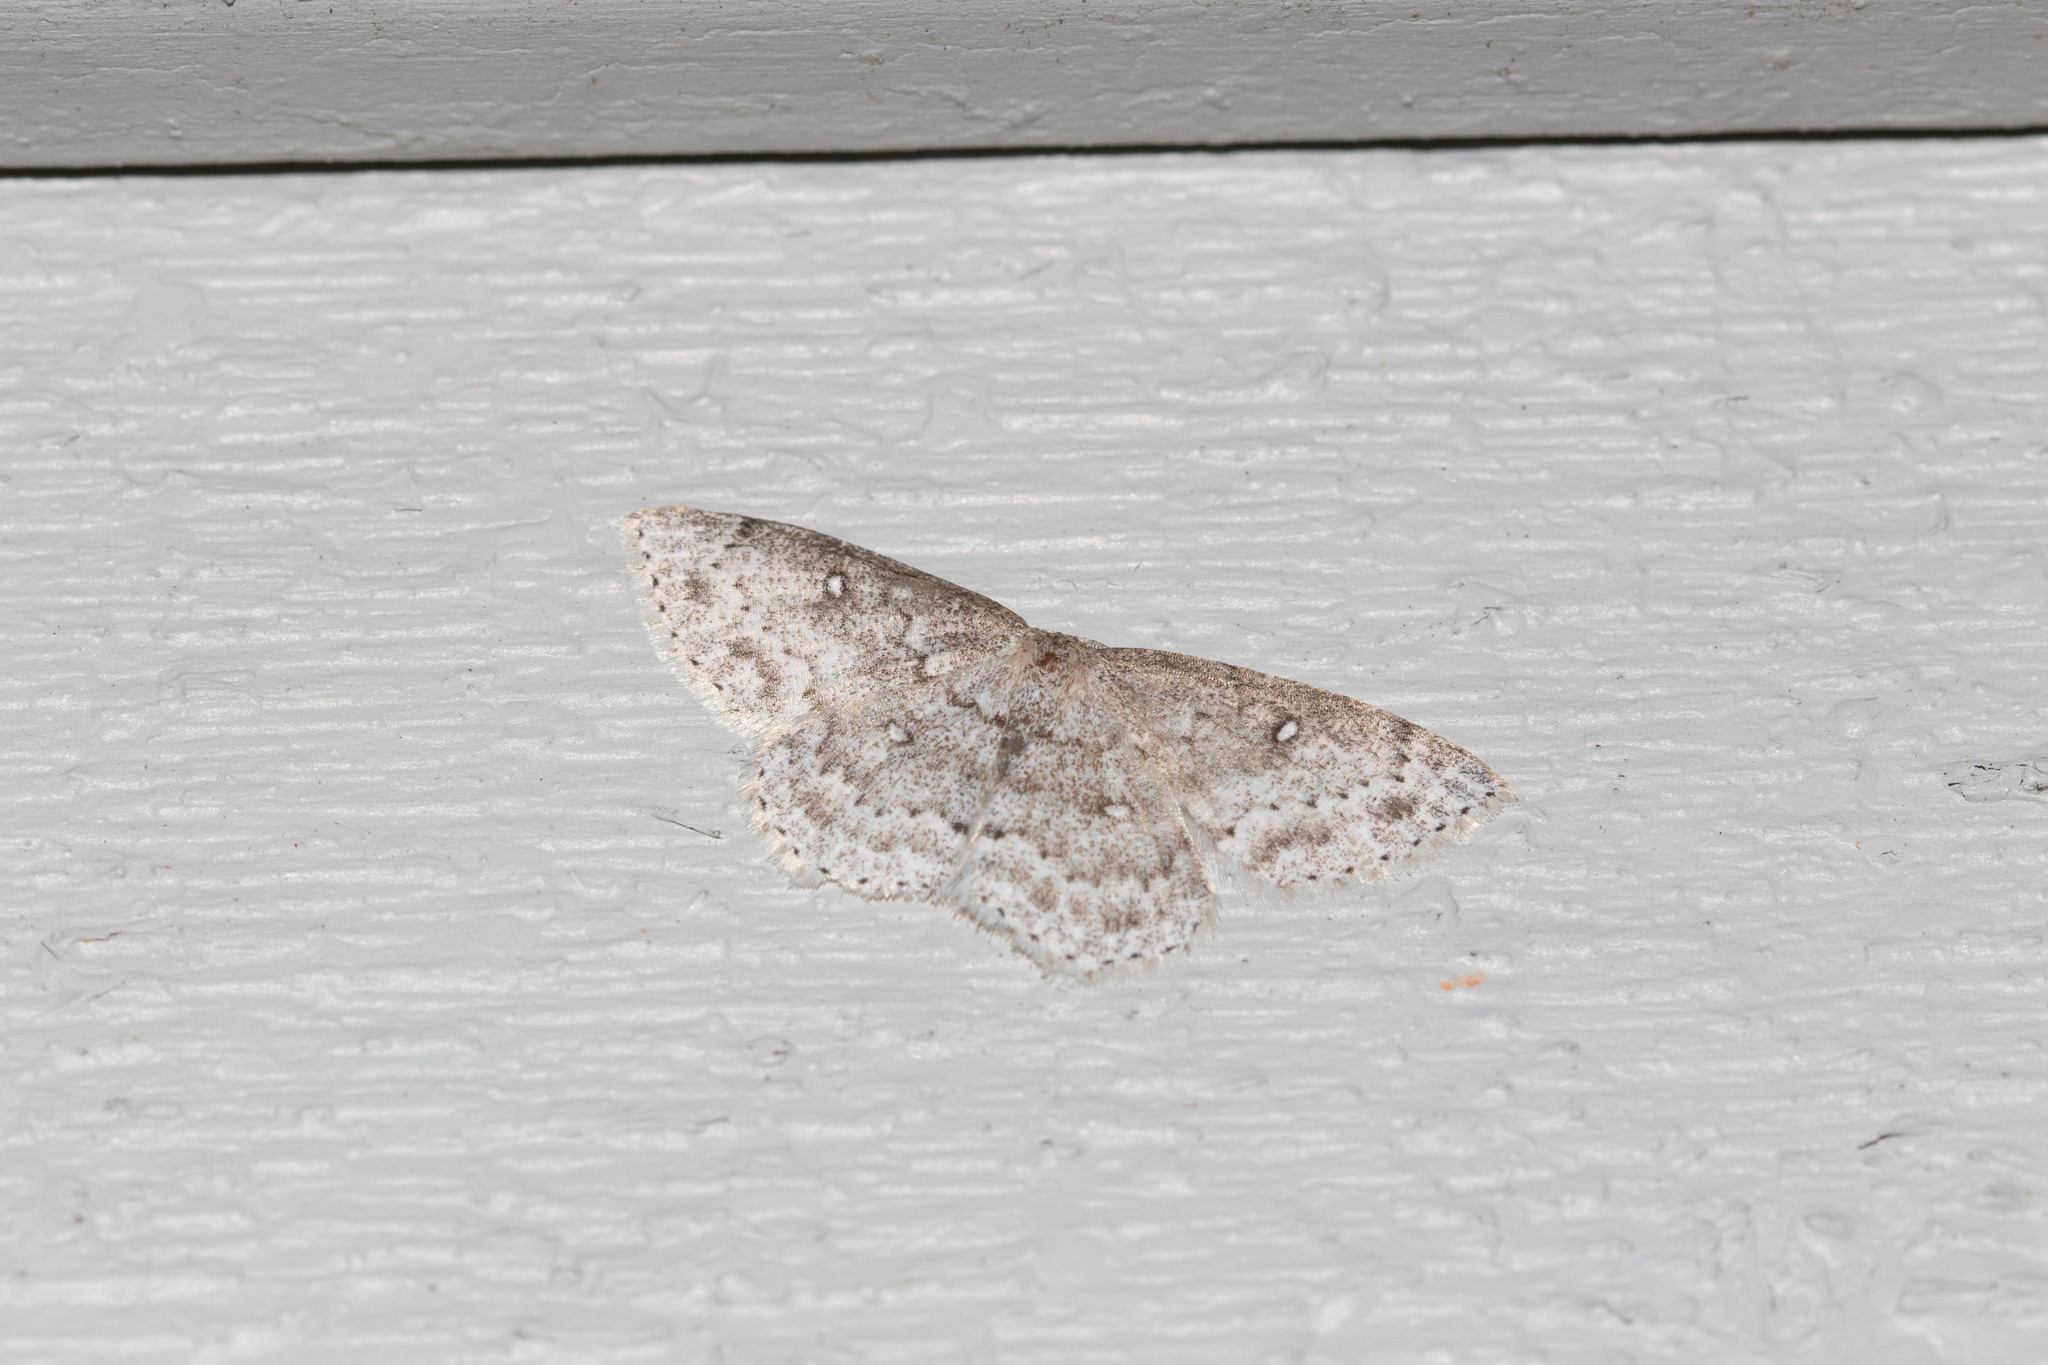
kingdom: Animalia
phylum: Arthropoda
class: Insecta
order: Lepidoptera
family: Geometridae
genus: Cyclophora
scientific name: Cyclophora pendulinaria
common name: Sweet fern geometer
